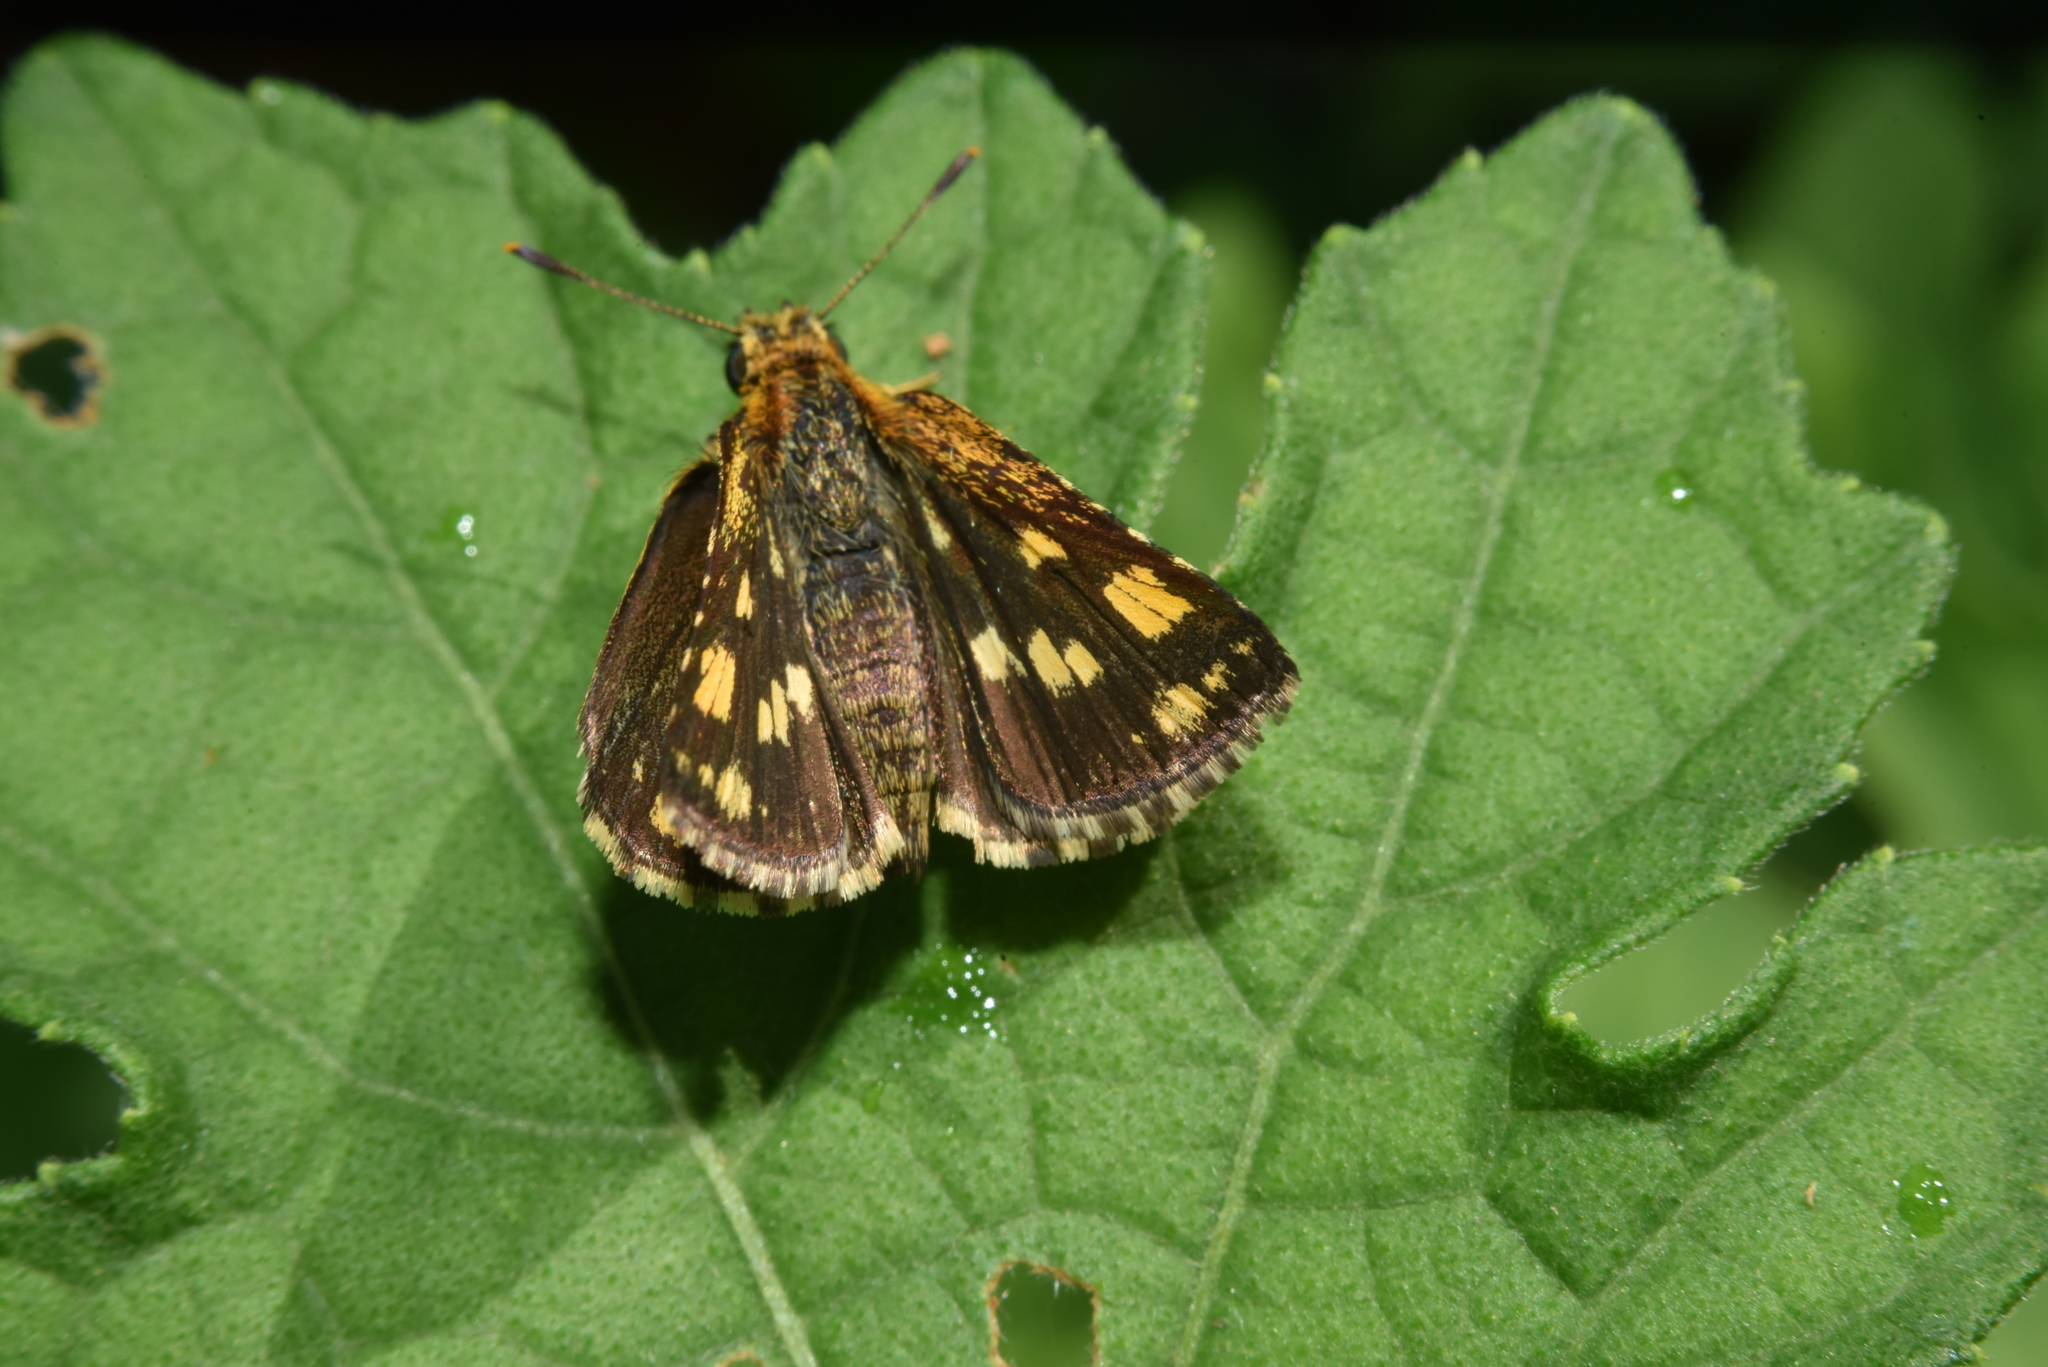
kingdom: Animalia
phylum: Arthropoda
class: Insecta
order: Lepidoptera
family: Hesperiidae
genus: Ampittia
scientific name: Ampittia dioscorides
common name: Common bush hopper
